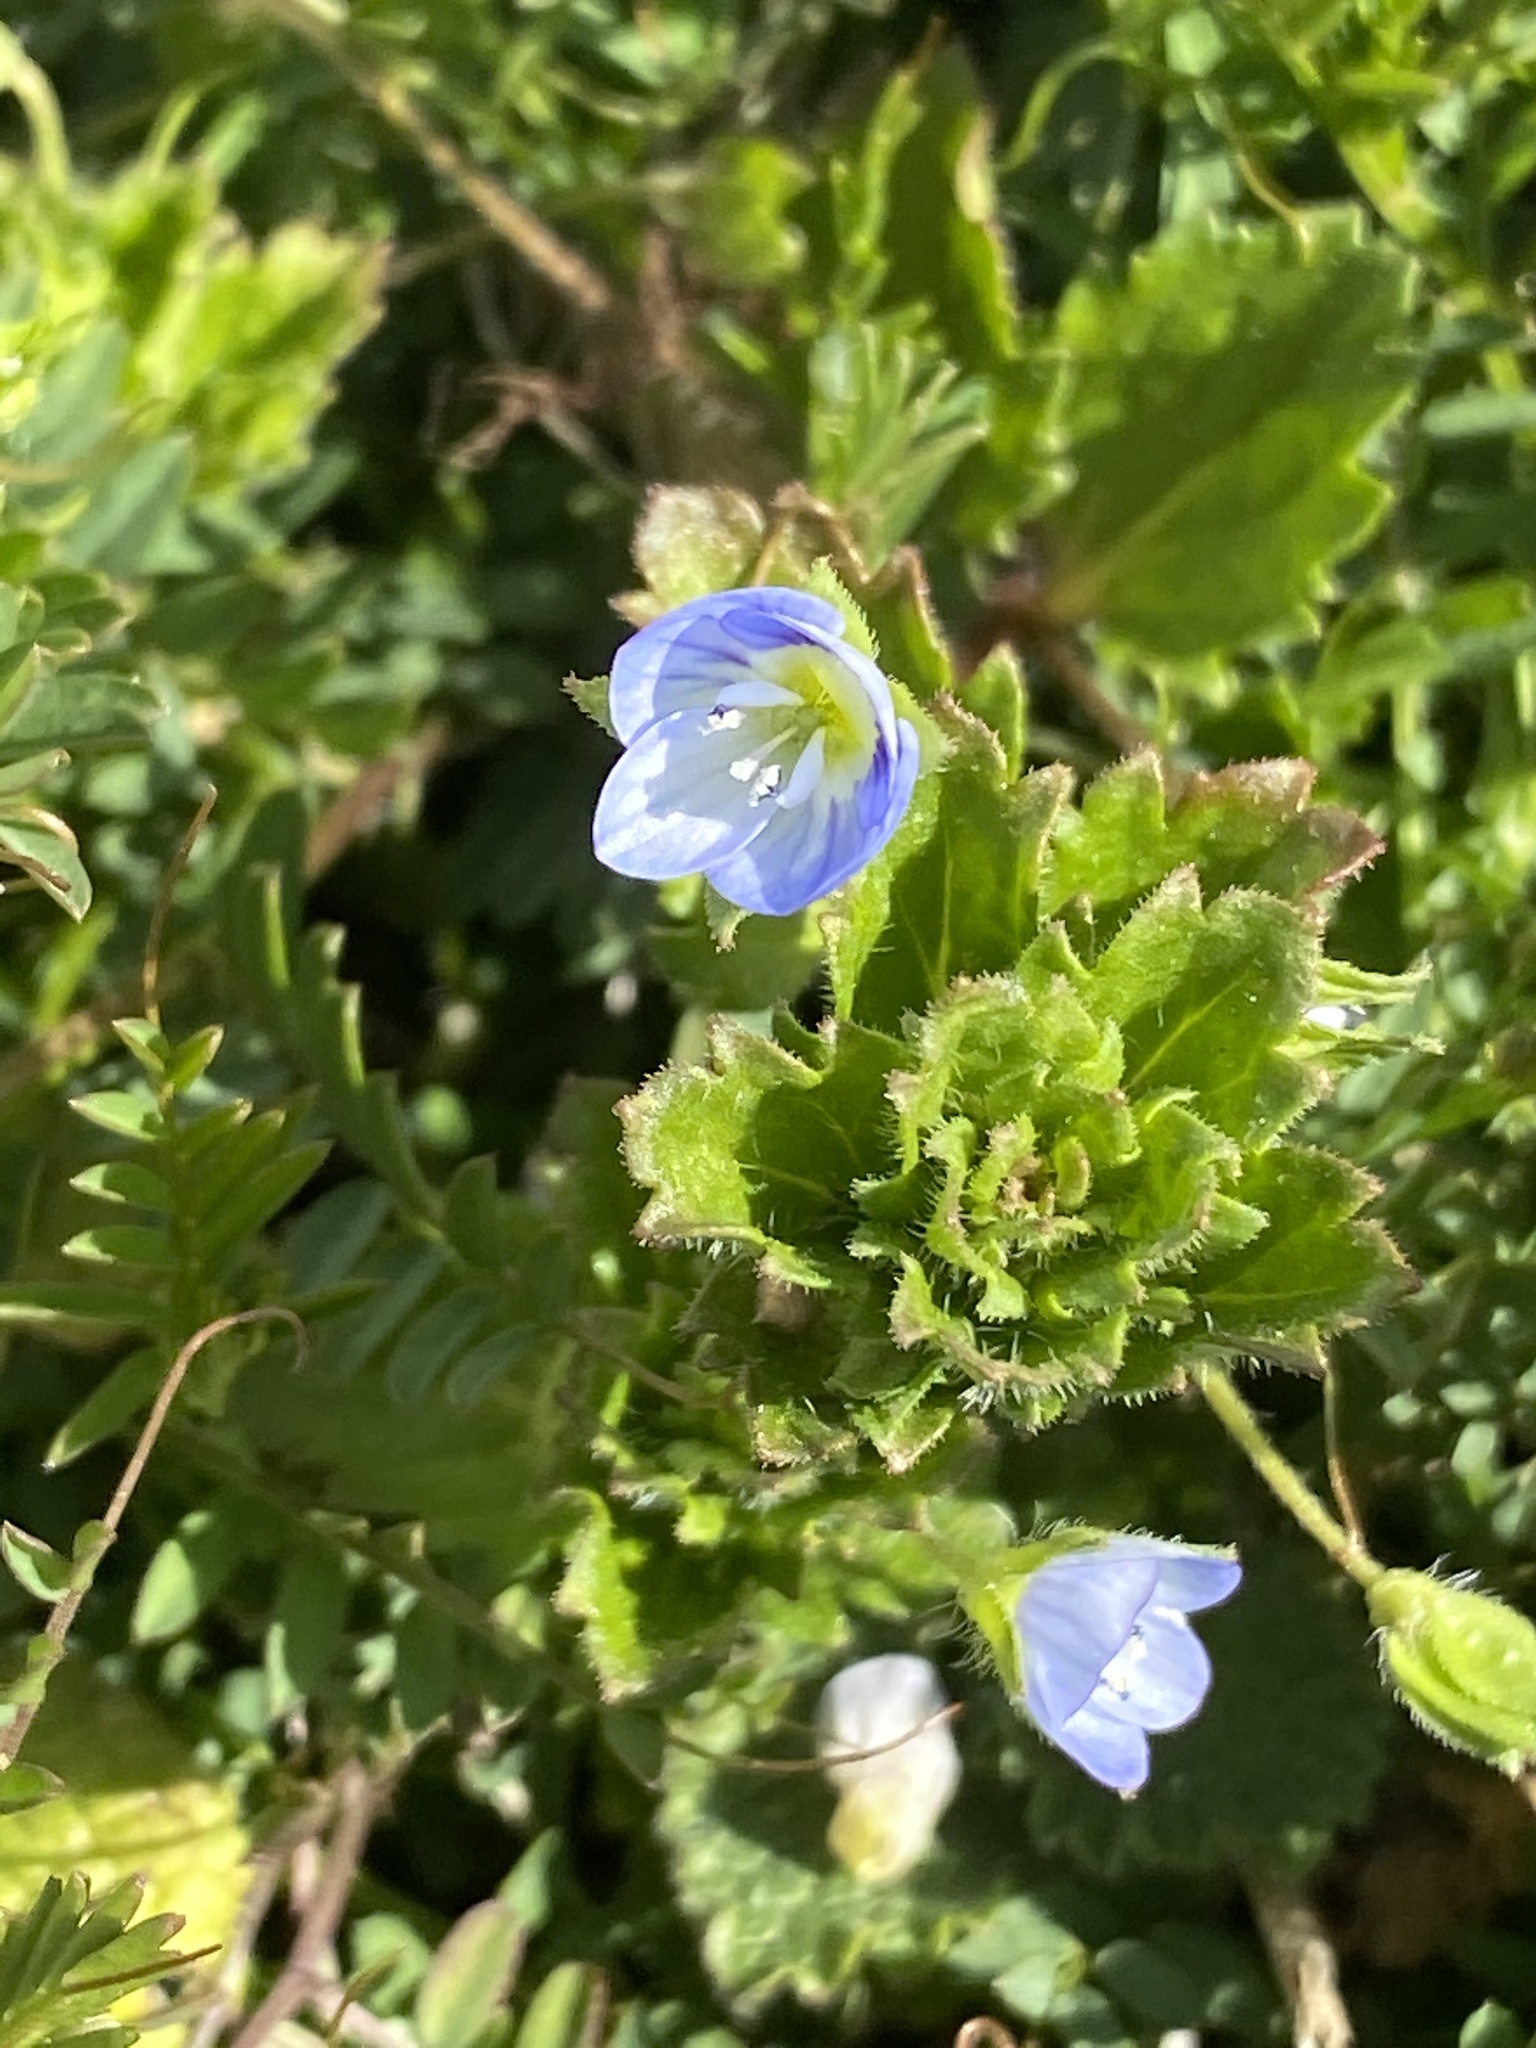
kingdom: Plantae
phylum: Tracheophyta
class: Magnoliopsida
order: Lamiales
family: Plantaginaceae
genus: Veronica
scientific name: Veronica persica
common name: Common field-speedwell
